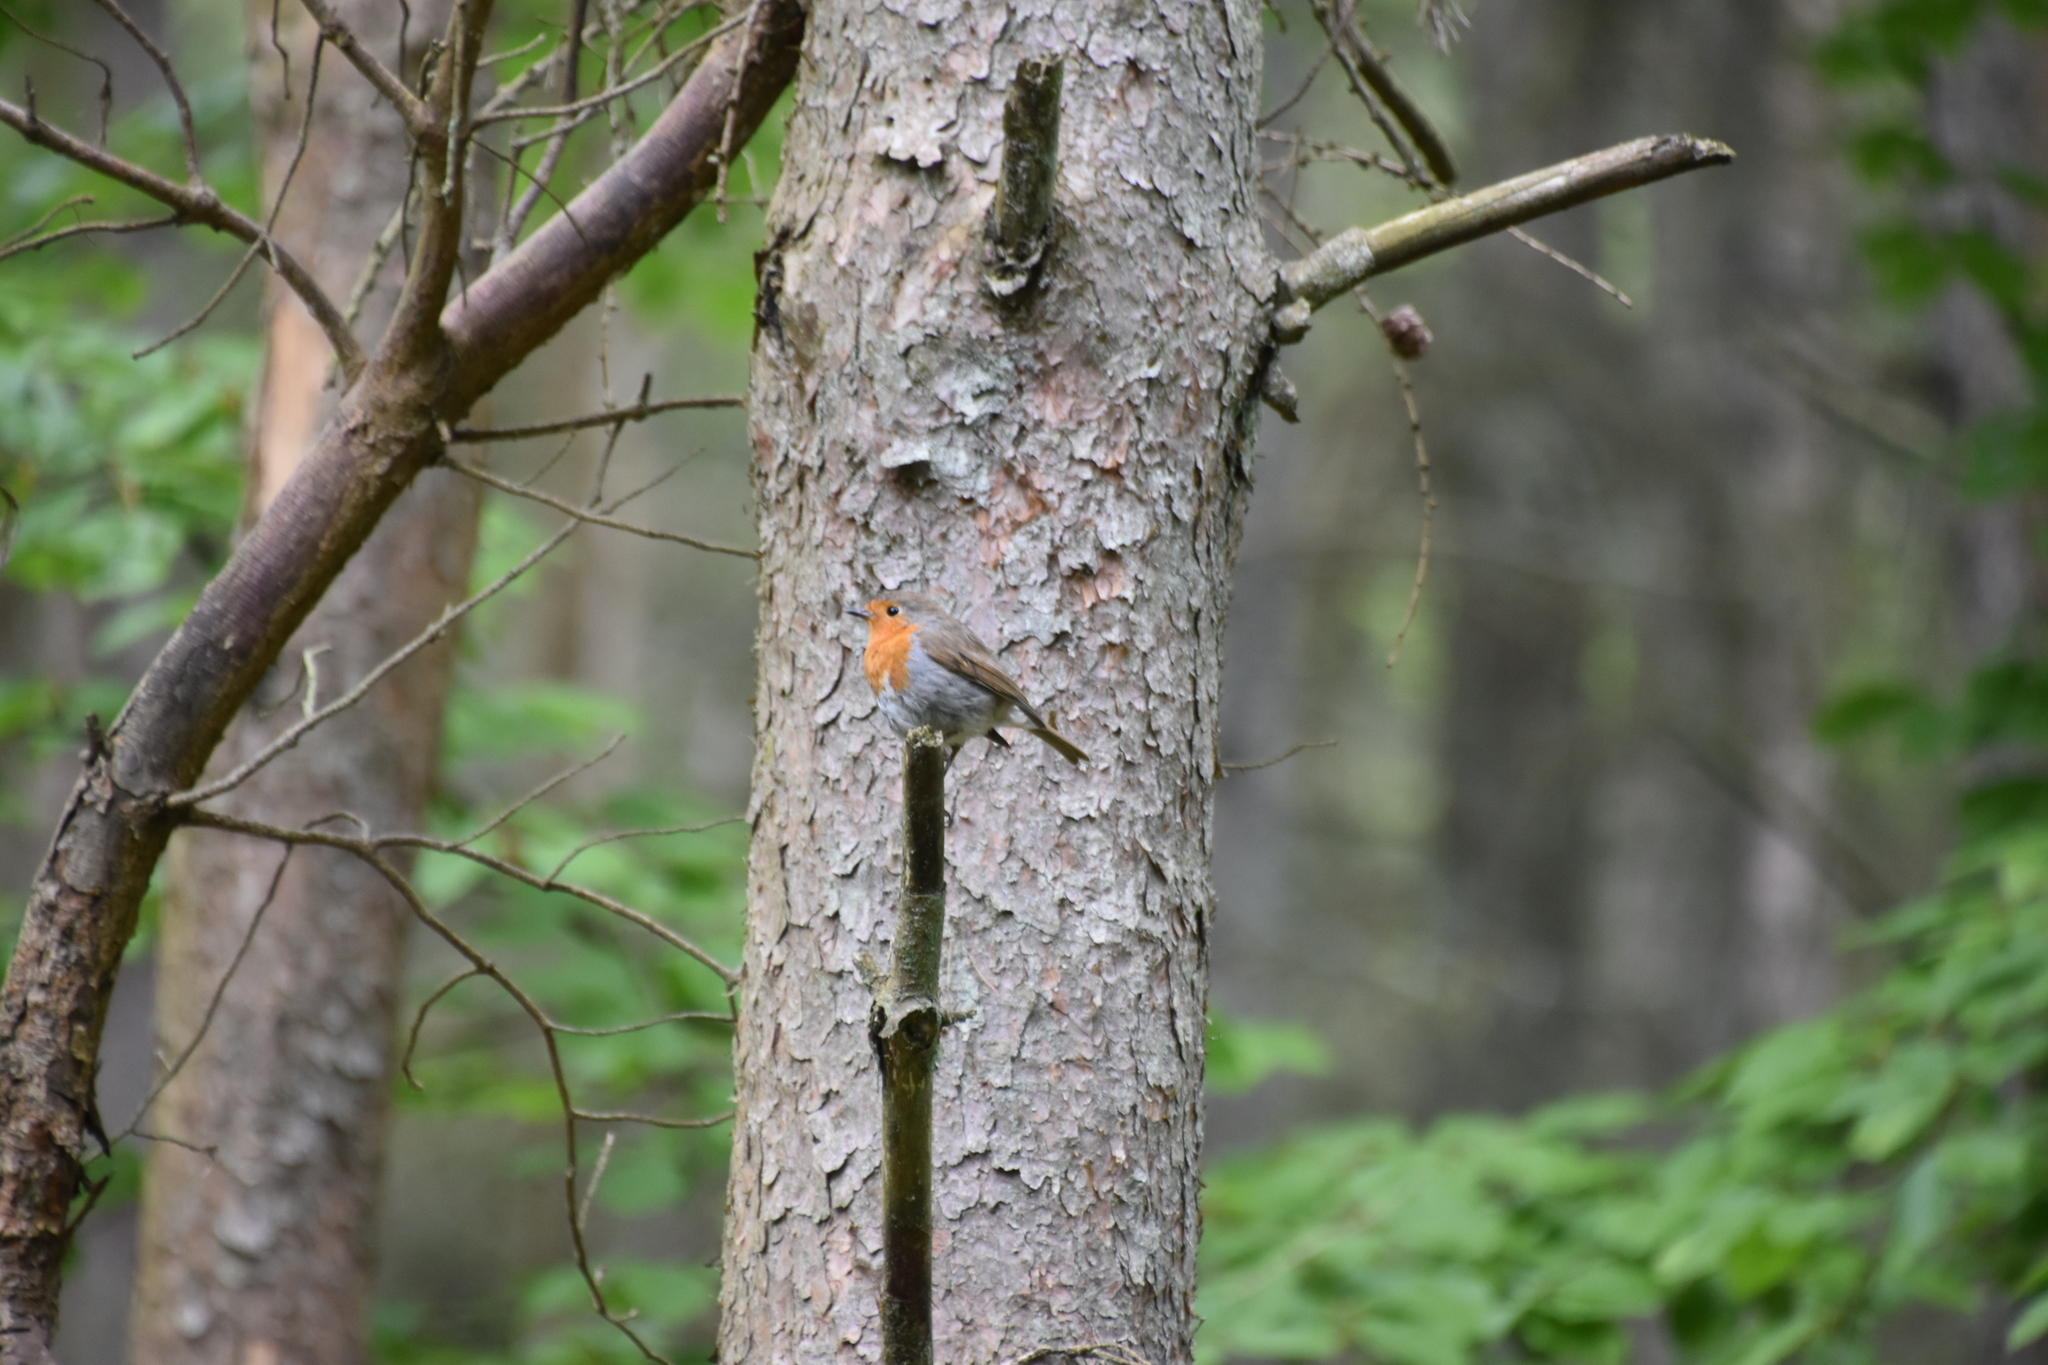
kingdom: Animalia
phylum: Chordata
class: Aves
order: Passeriformes
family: Muscicapidae
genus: Erithacus
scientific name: Erithacus rubecula
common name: European robin
